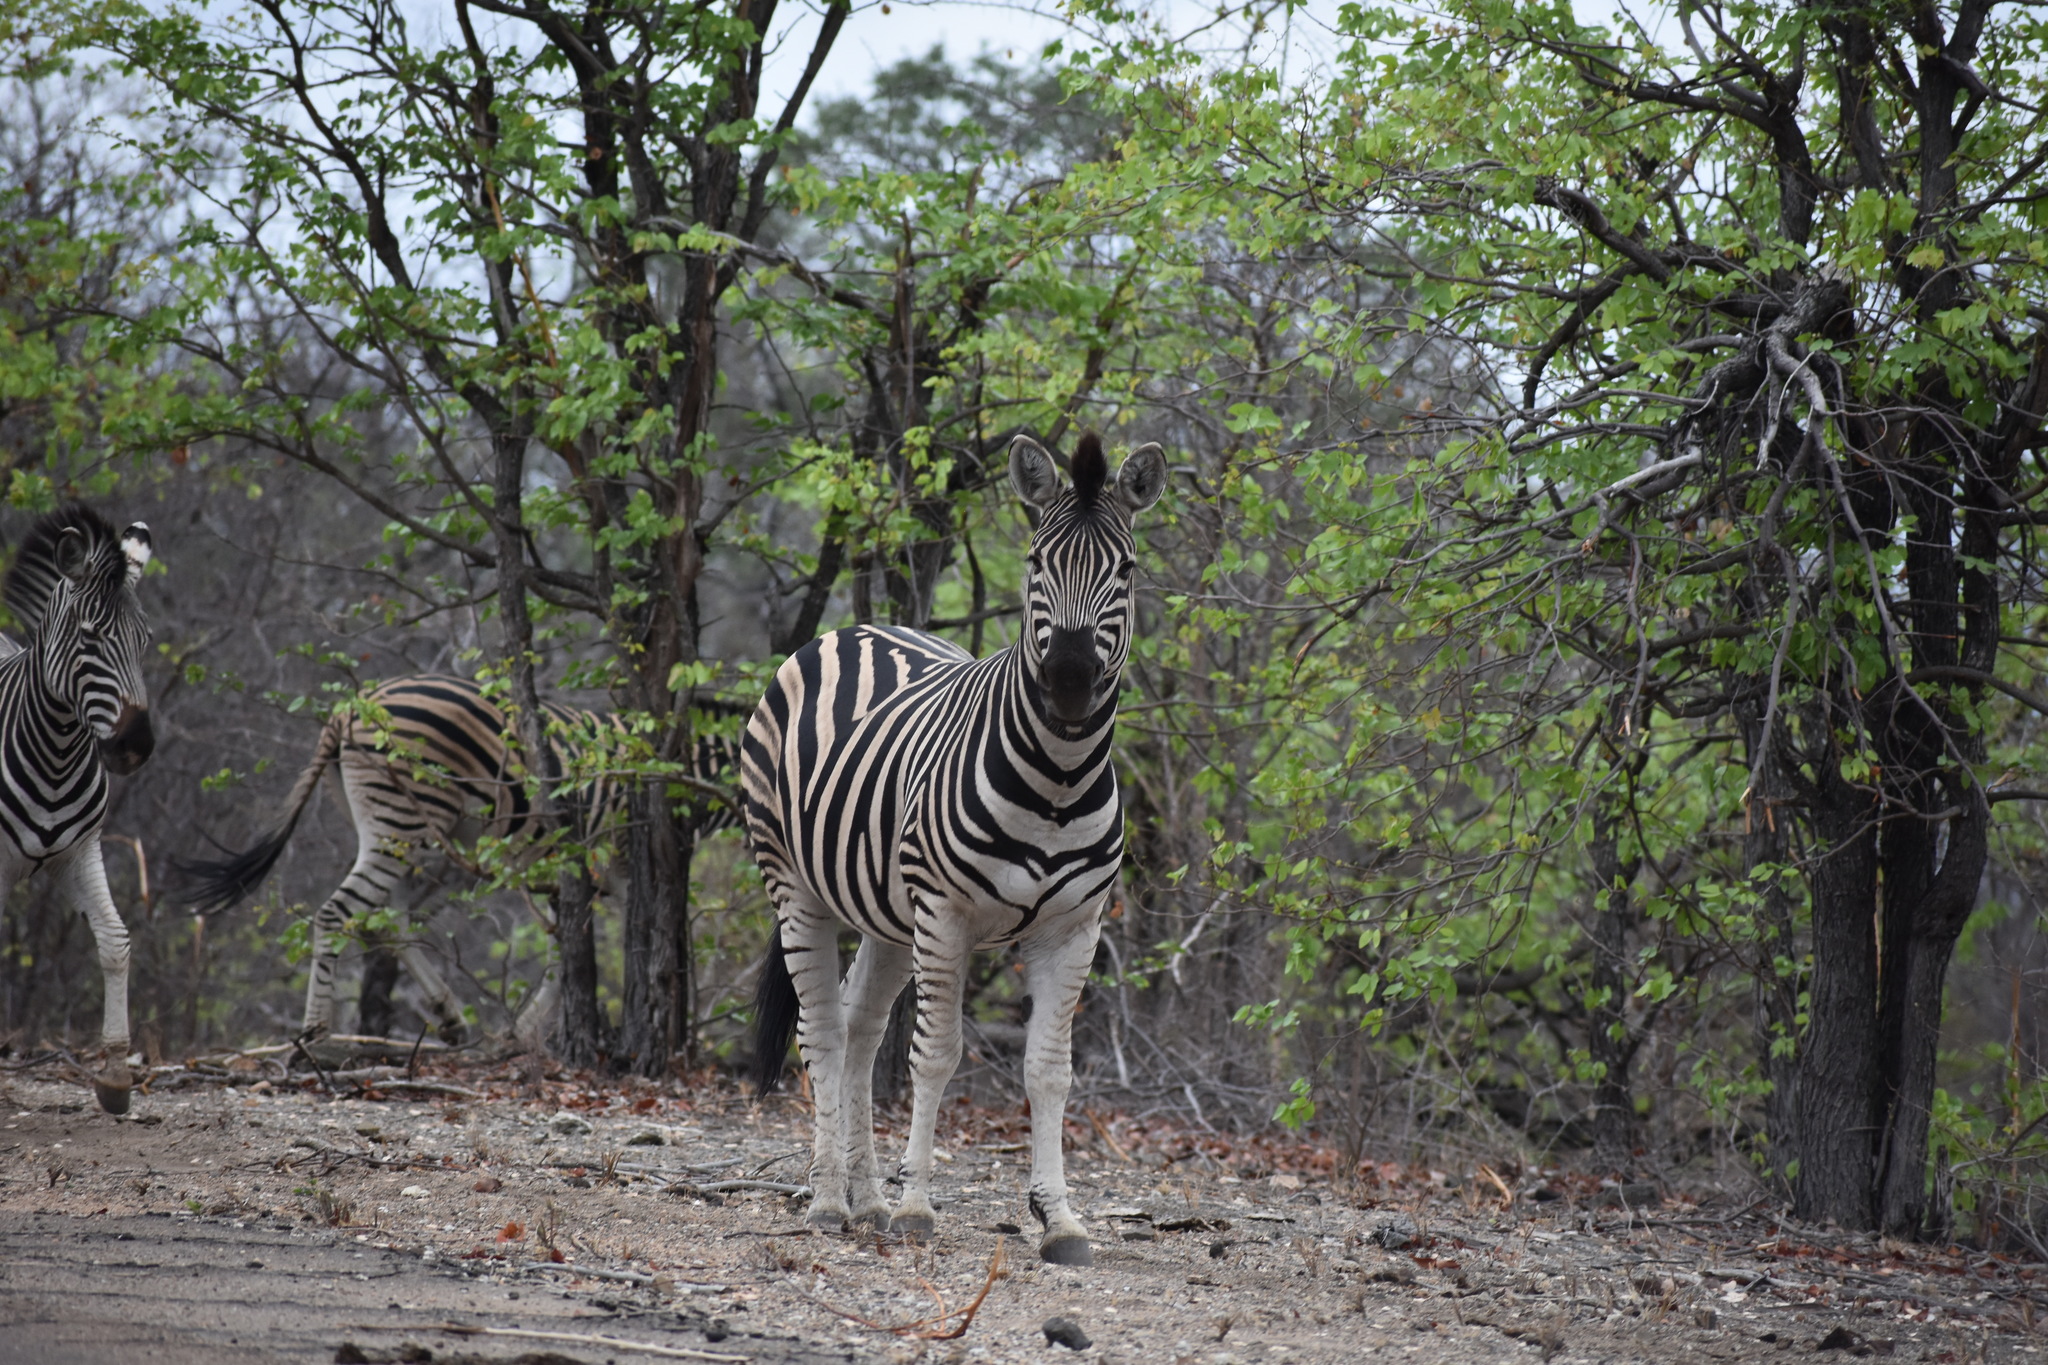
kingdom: Animalia
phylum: Chordata
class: Mammalia
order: Perissodactyla
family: Equidae
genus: Equus
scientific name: Equus quagga
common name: Plains zebra
